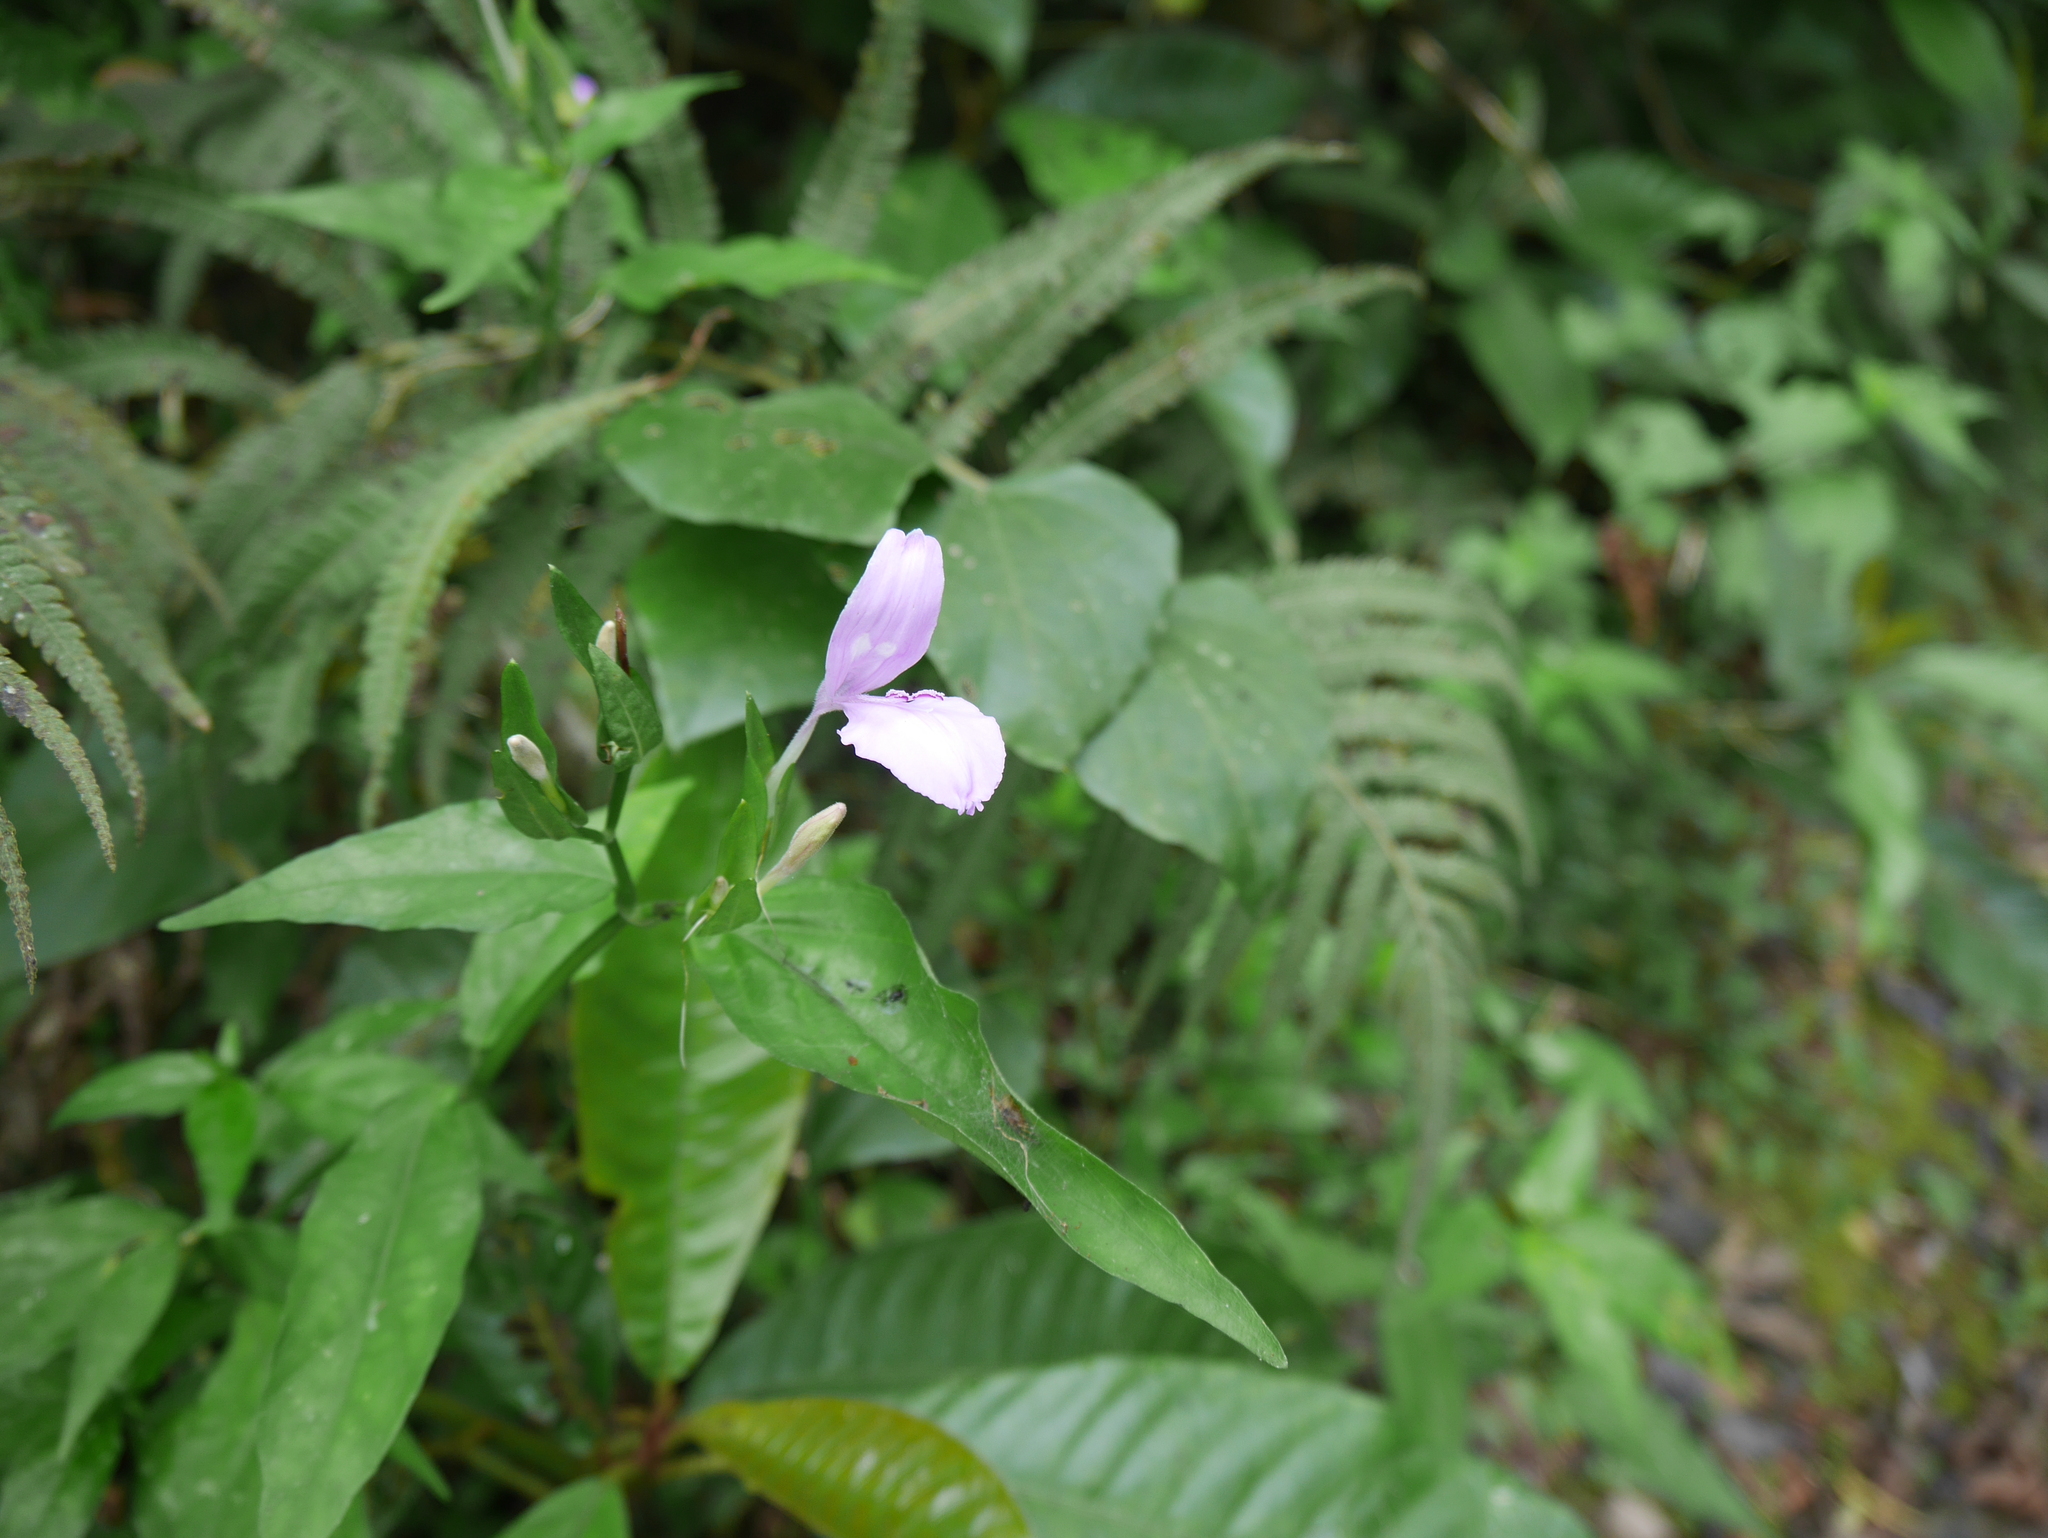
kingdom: Plantae
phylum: Tracheophyta
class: Magnoliopsida
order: Lamiales
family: Acanthaceae
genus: Dicliptera
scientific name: Dicliptera tinctoria
